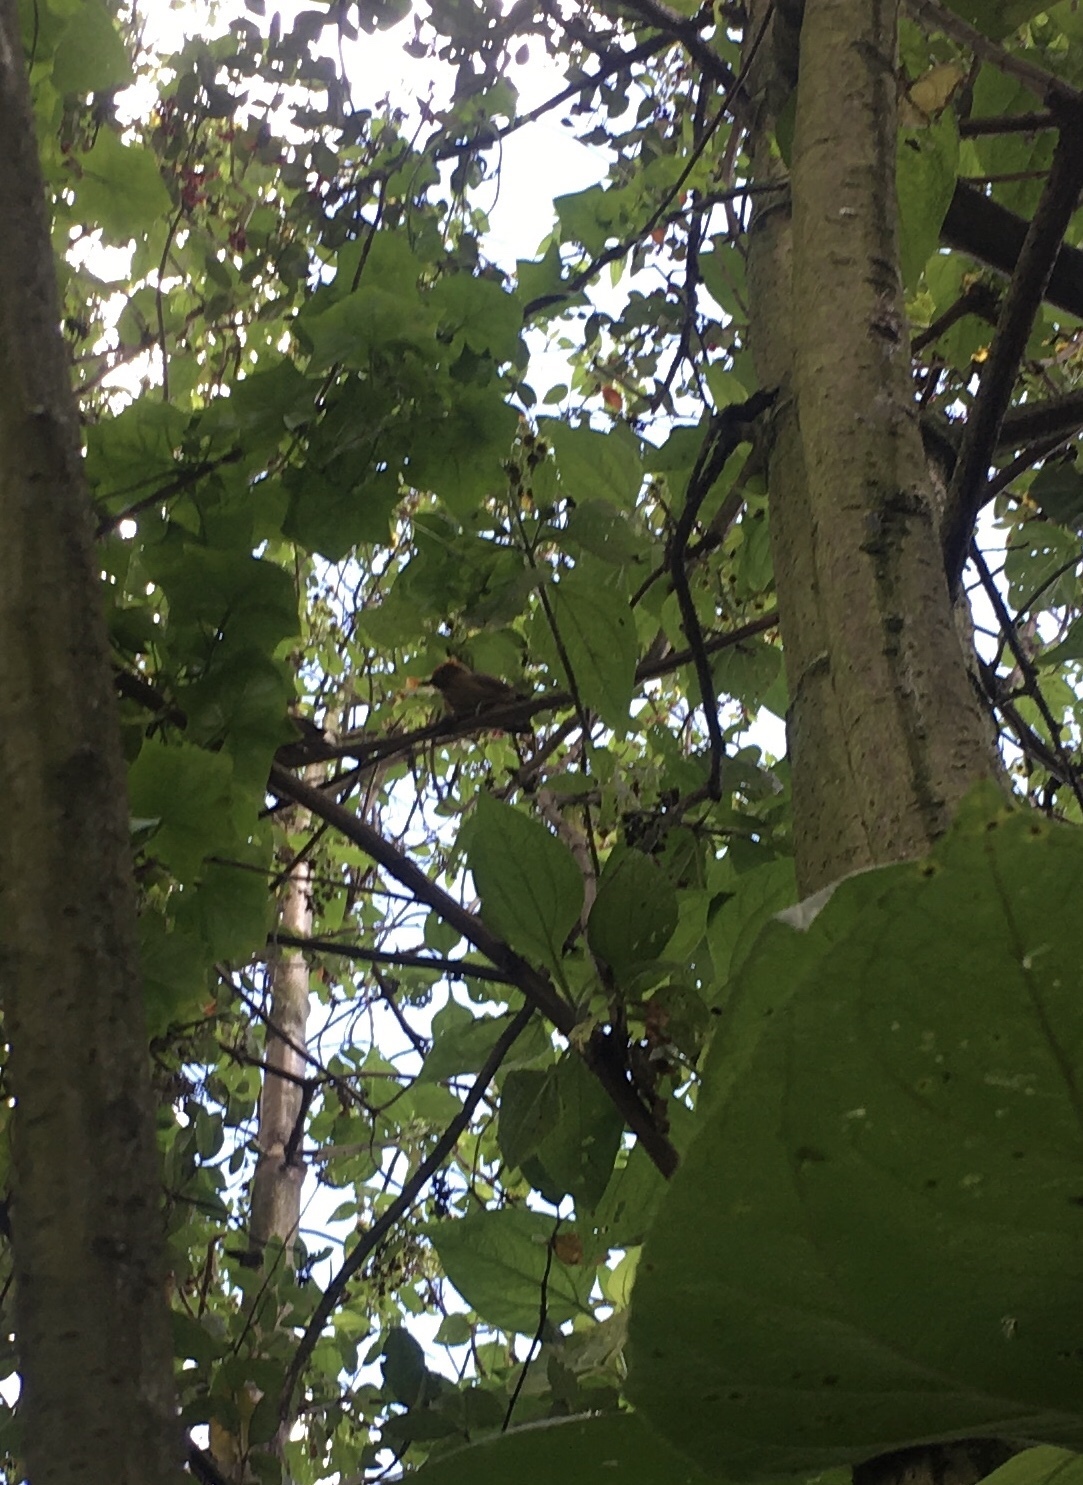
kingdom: Animalia
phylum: Chordata
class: Aves
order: Piciformes
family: Picidae
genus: Leuconotopicus
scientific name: Leuconotopicus fumigatus
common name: Smoky-brown woodpecker
